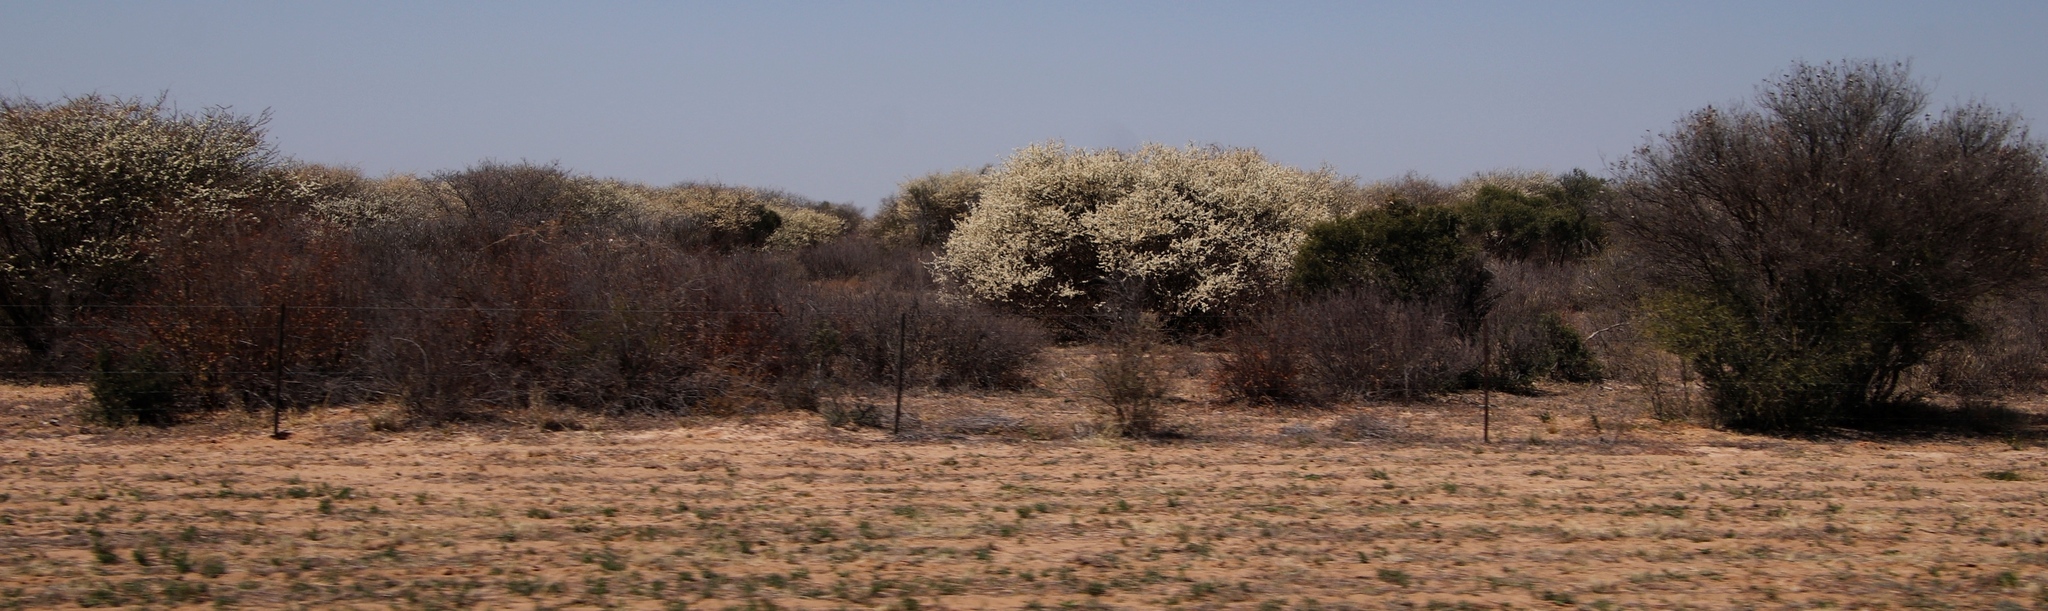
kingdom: Plantae
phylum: Tracheophyta
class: Magnoliopsida
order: Fabales
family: Fabaceae
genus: Senegalia
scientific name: Senegalia mellifera
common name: Hookthorn
